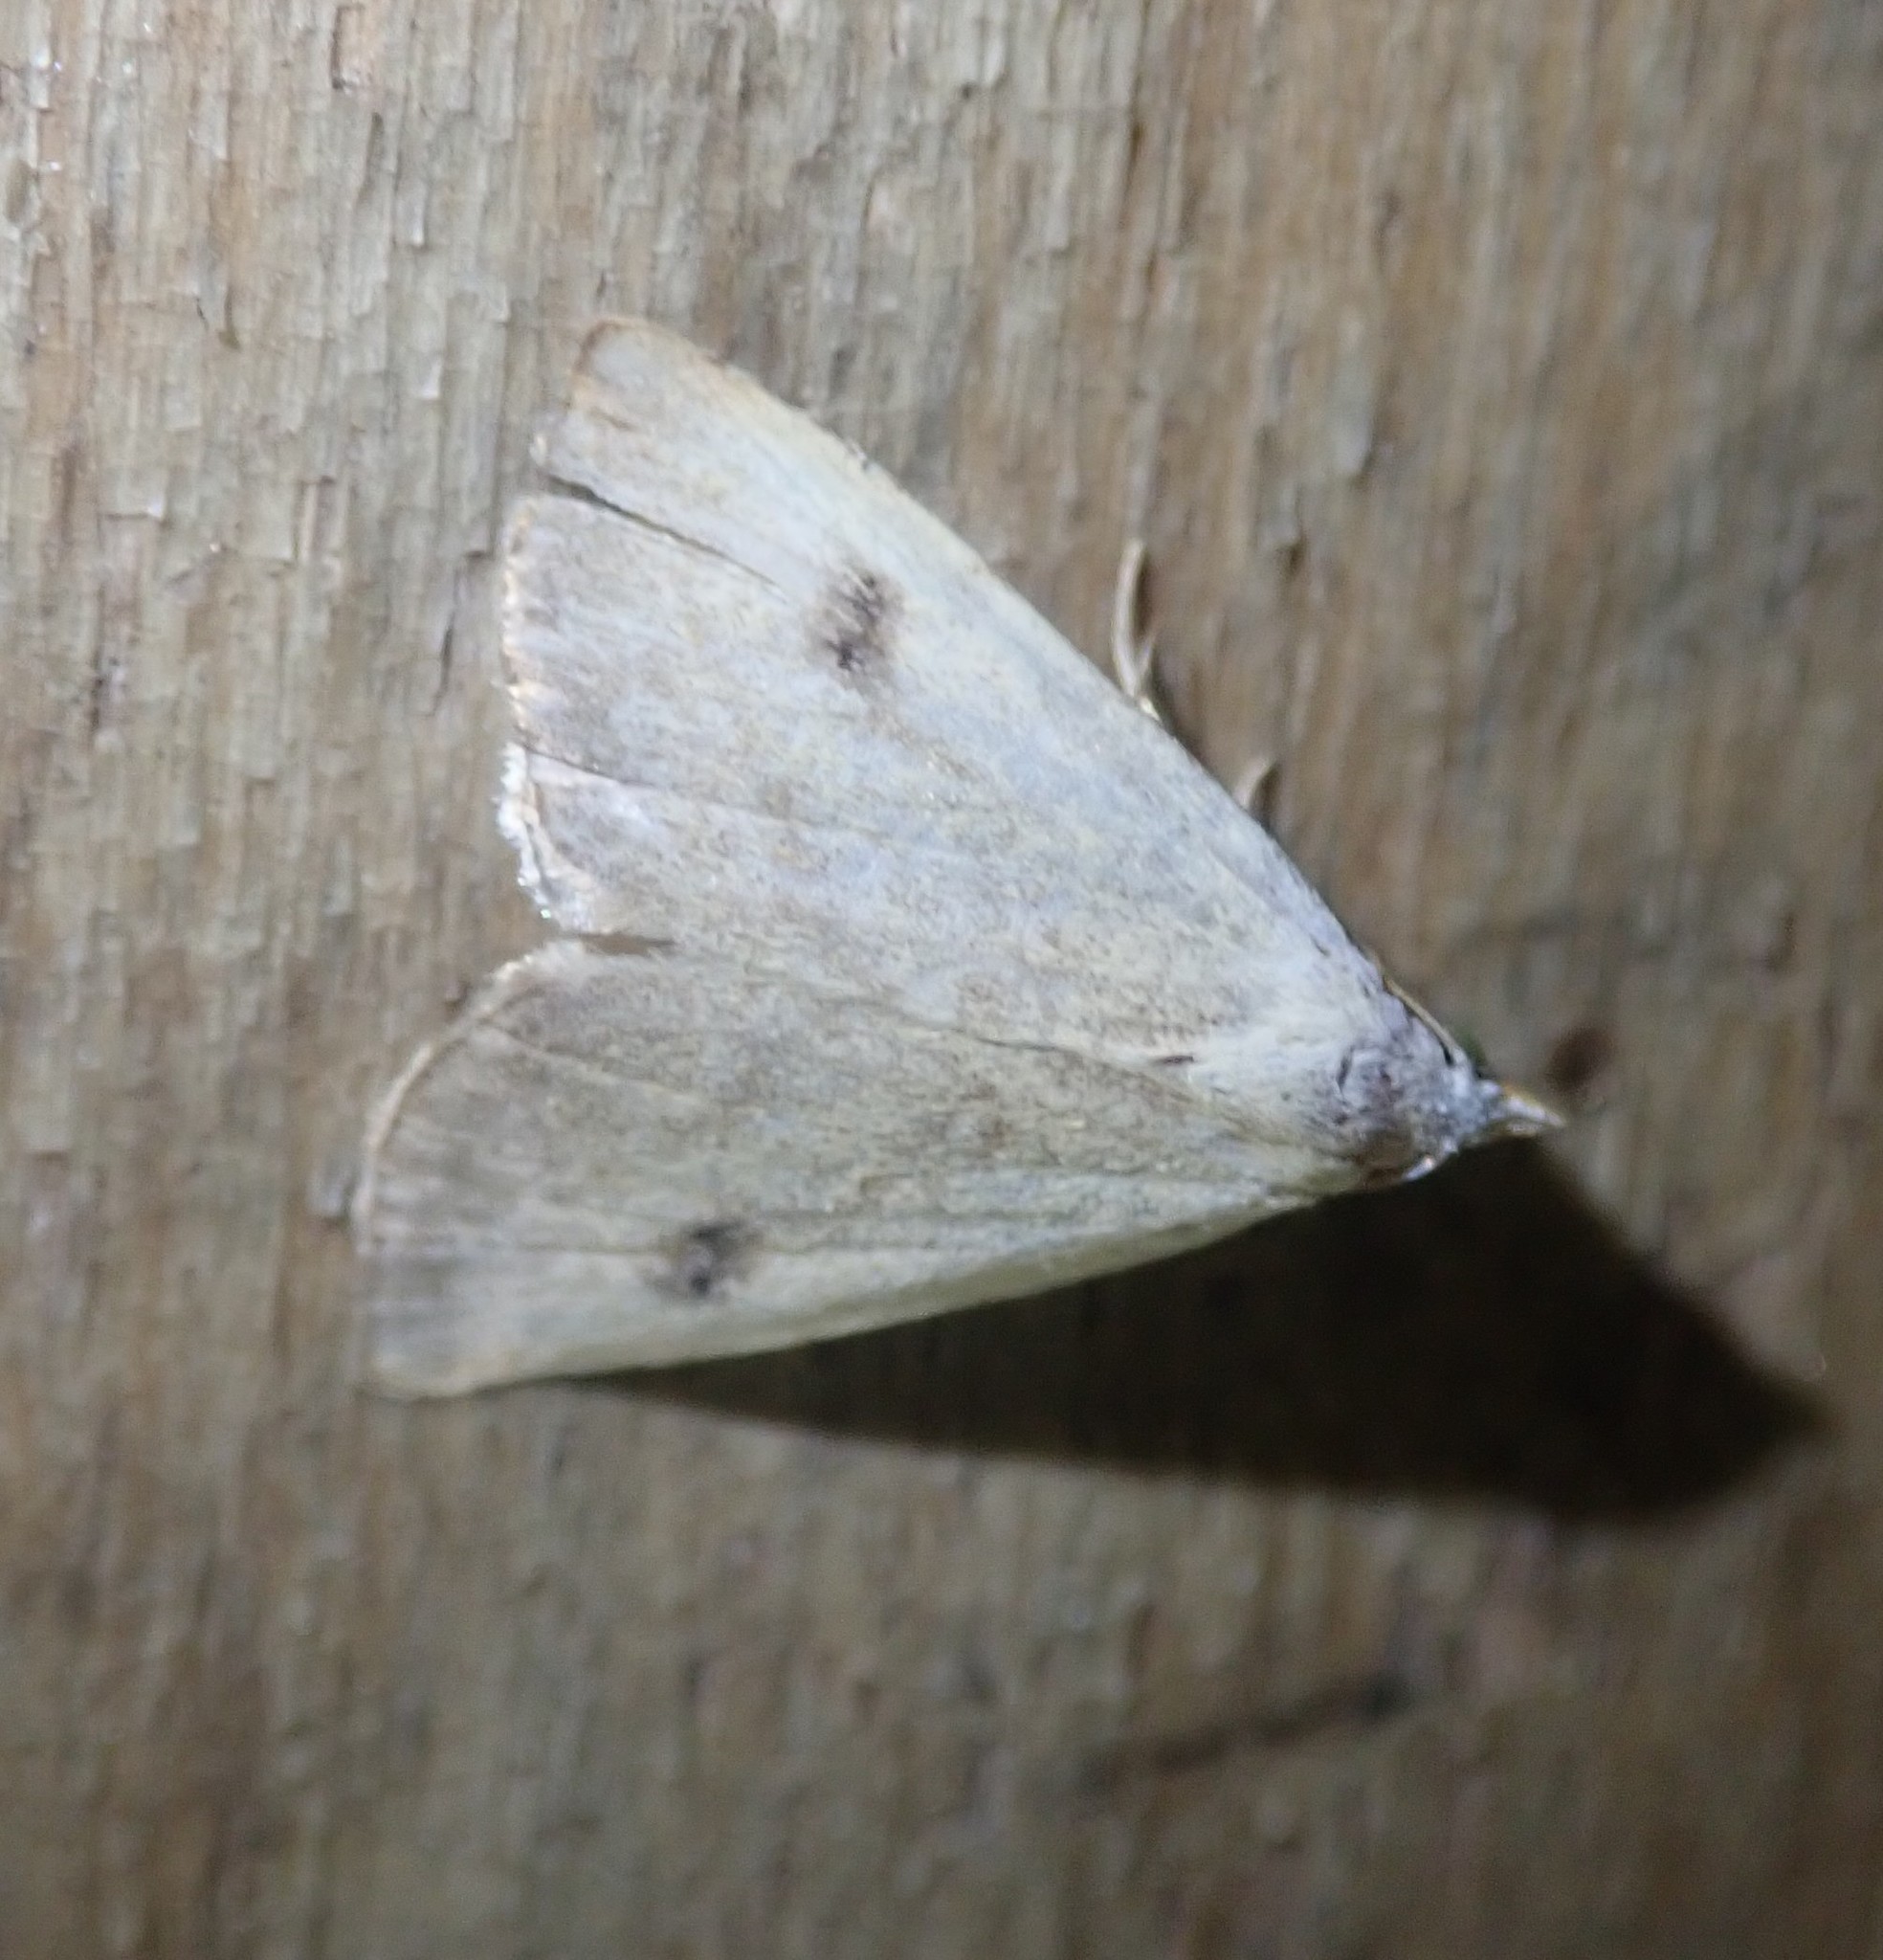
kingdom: Animalia
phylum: Arthropoda
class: Insecta
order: Lepidoptera
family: Erebidae
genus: Rivula
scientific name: Rivula sericealis
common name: Straw dot
